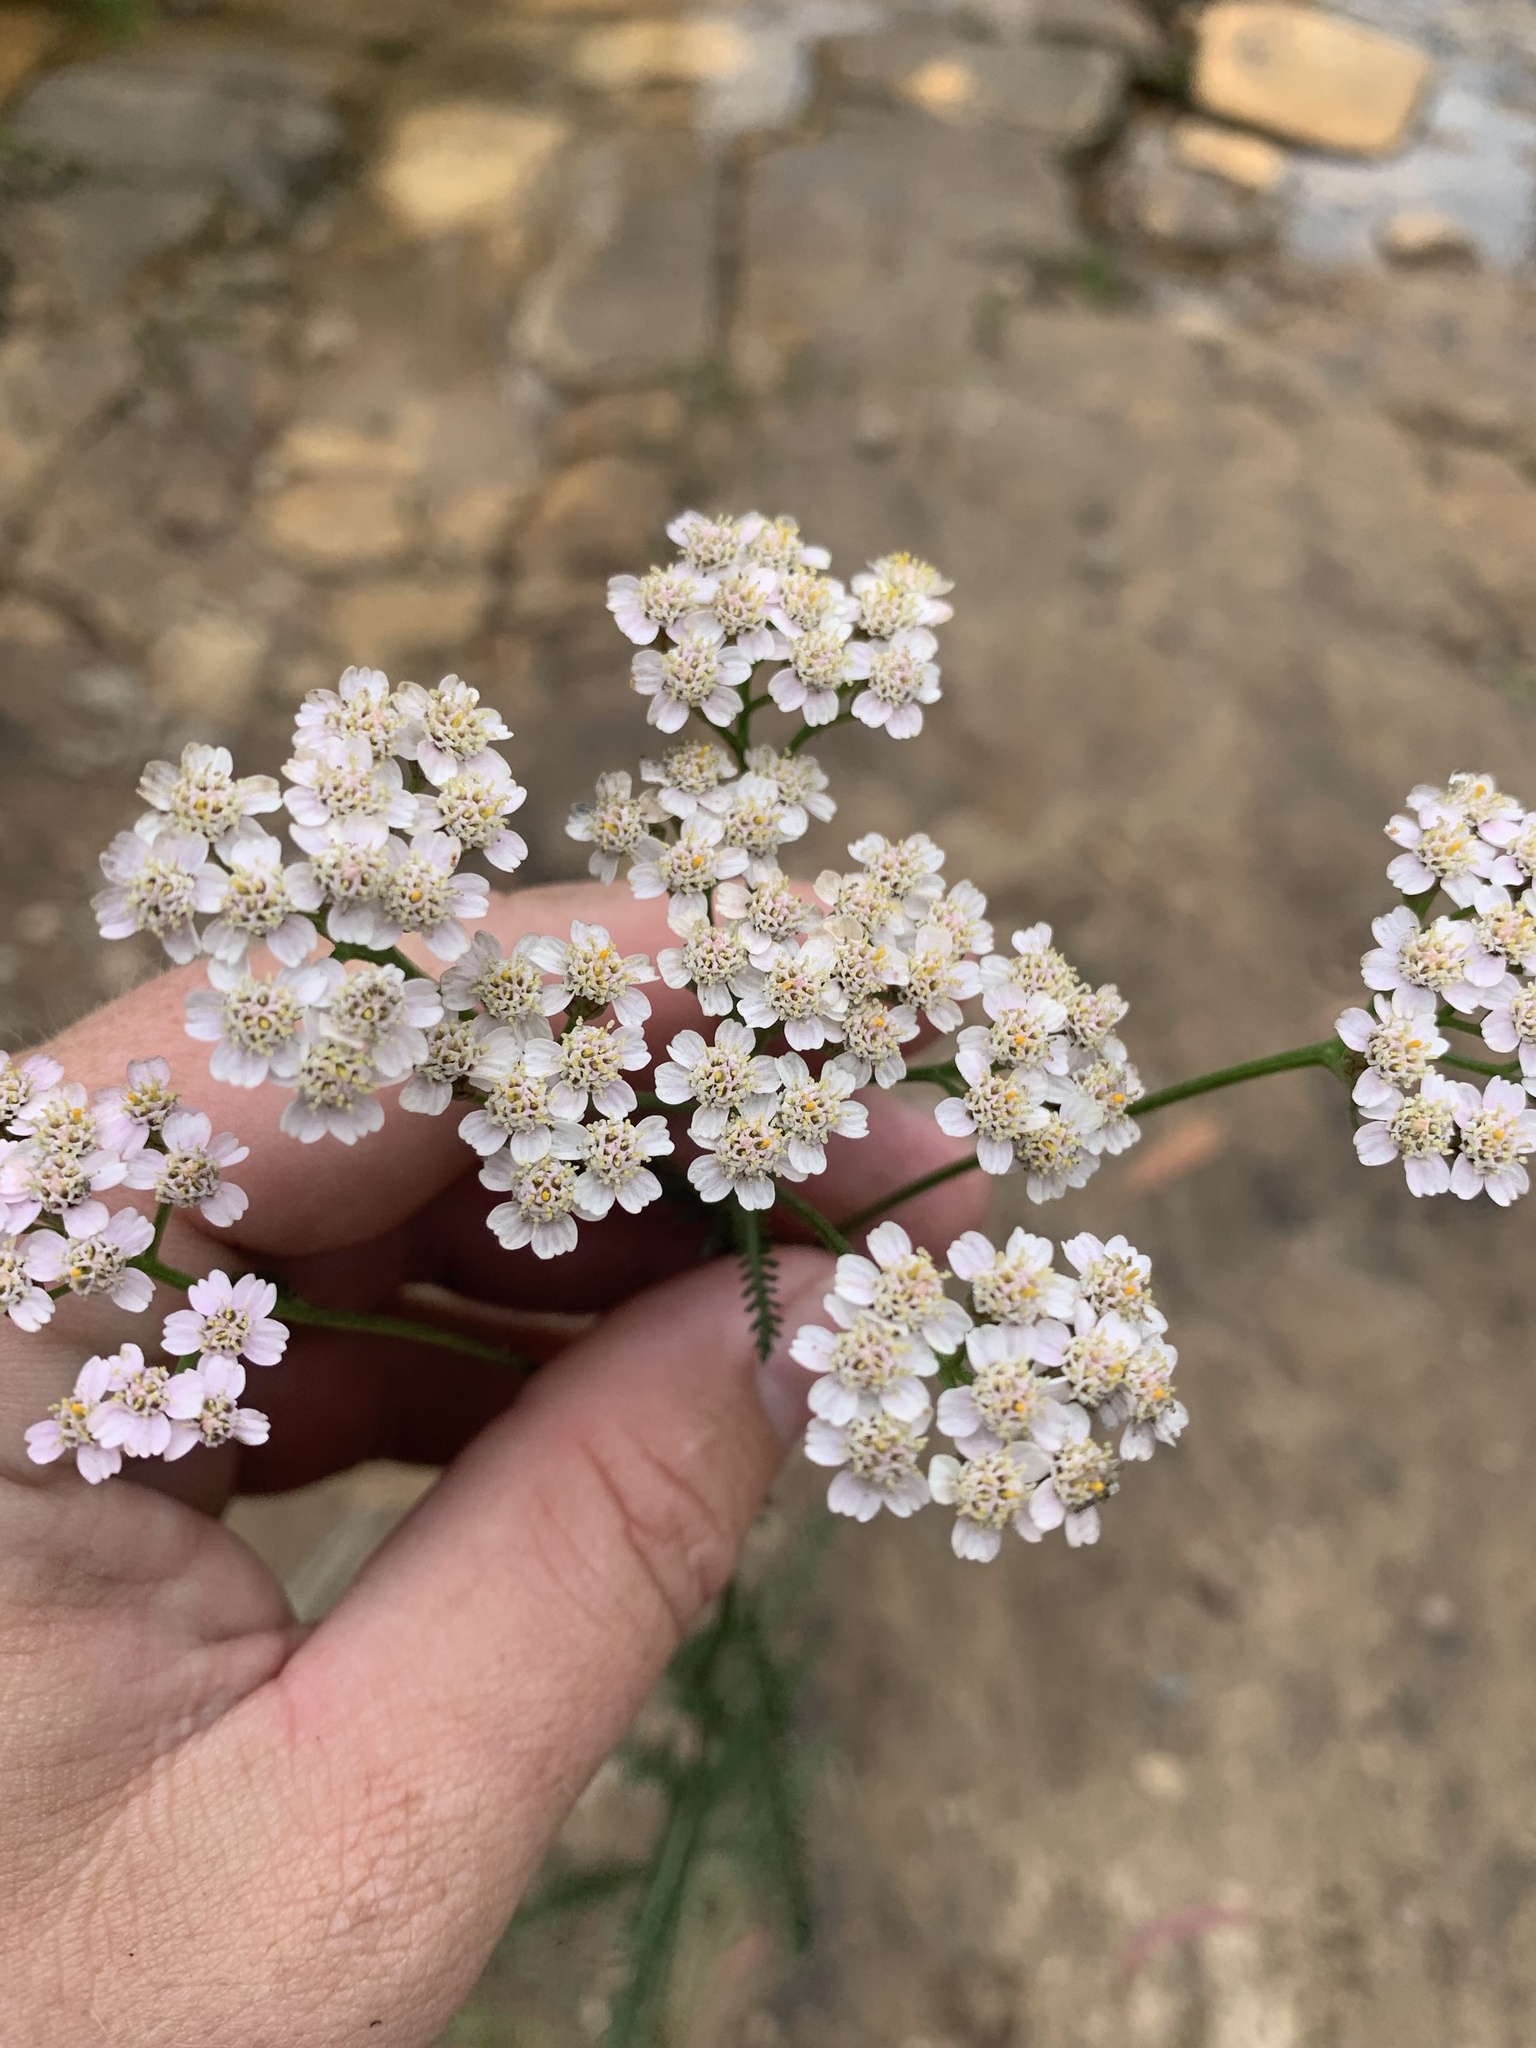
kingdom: Plantae
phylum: Tracheophyta
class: Magnoliopsida
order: Asterales
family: Asteraceae
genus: Achillea
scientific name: Achillea millefolium
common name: Yarrow
